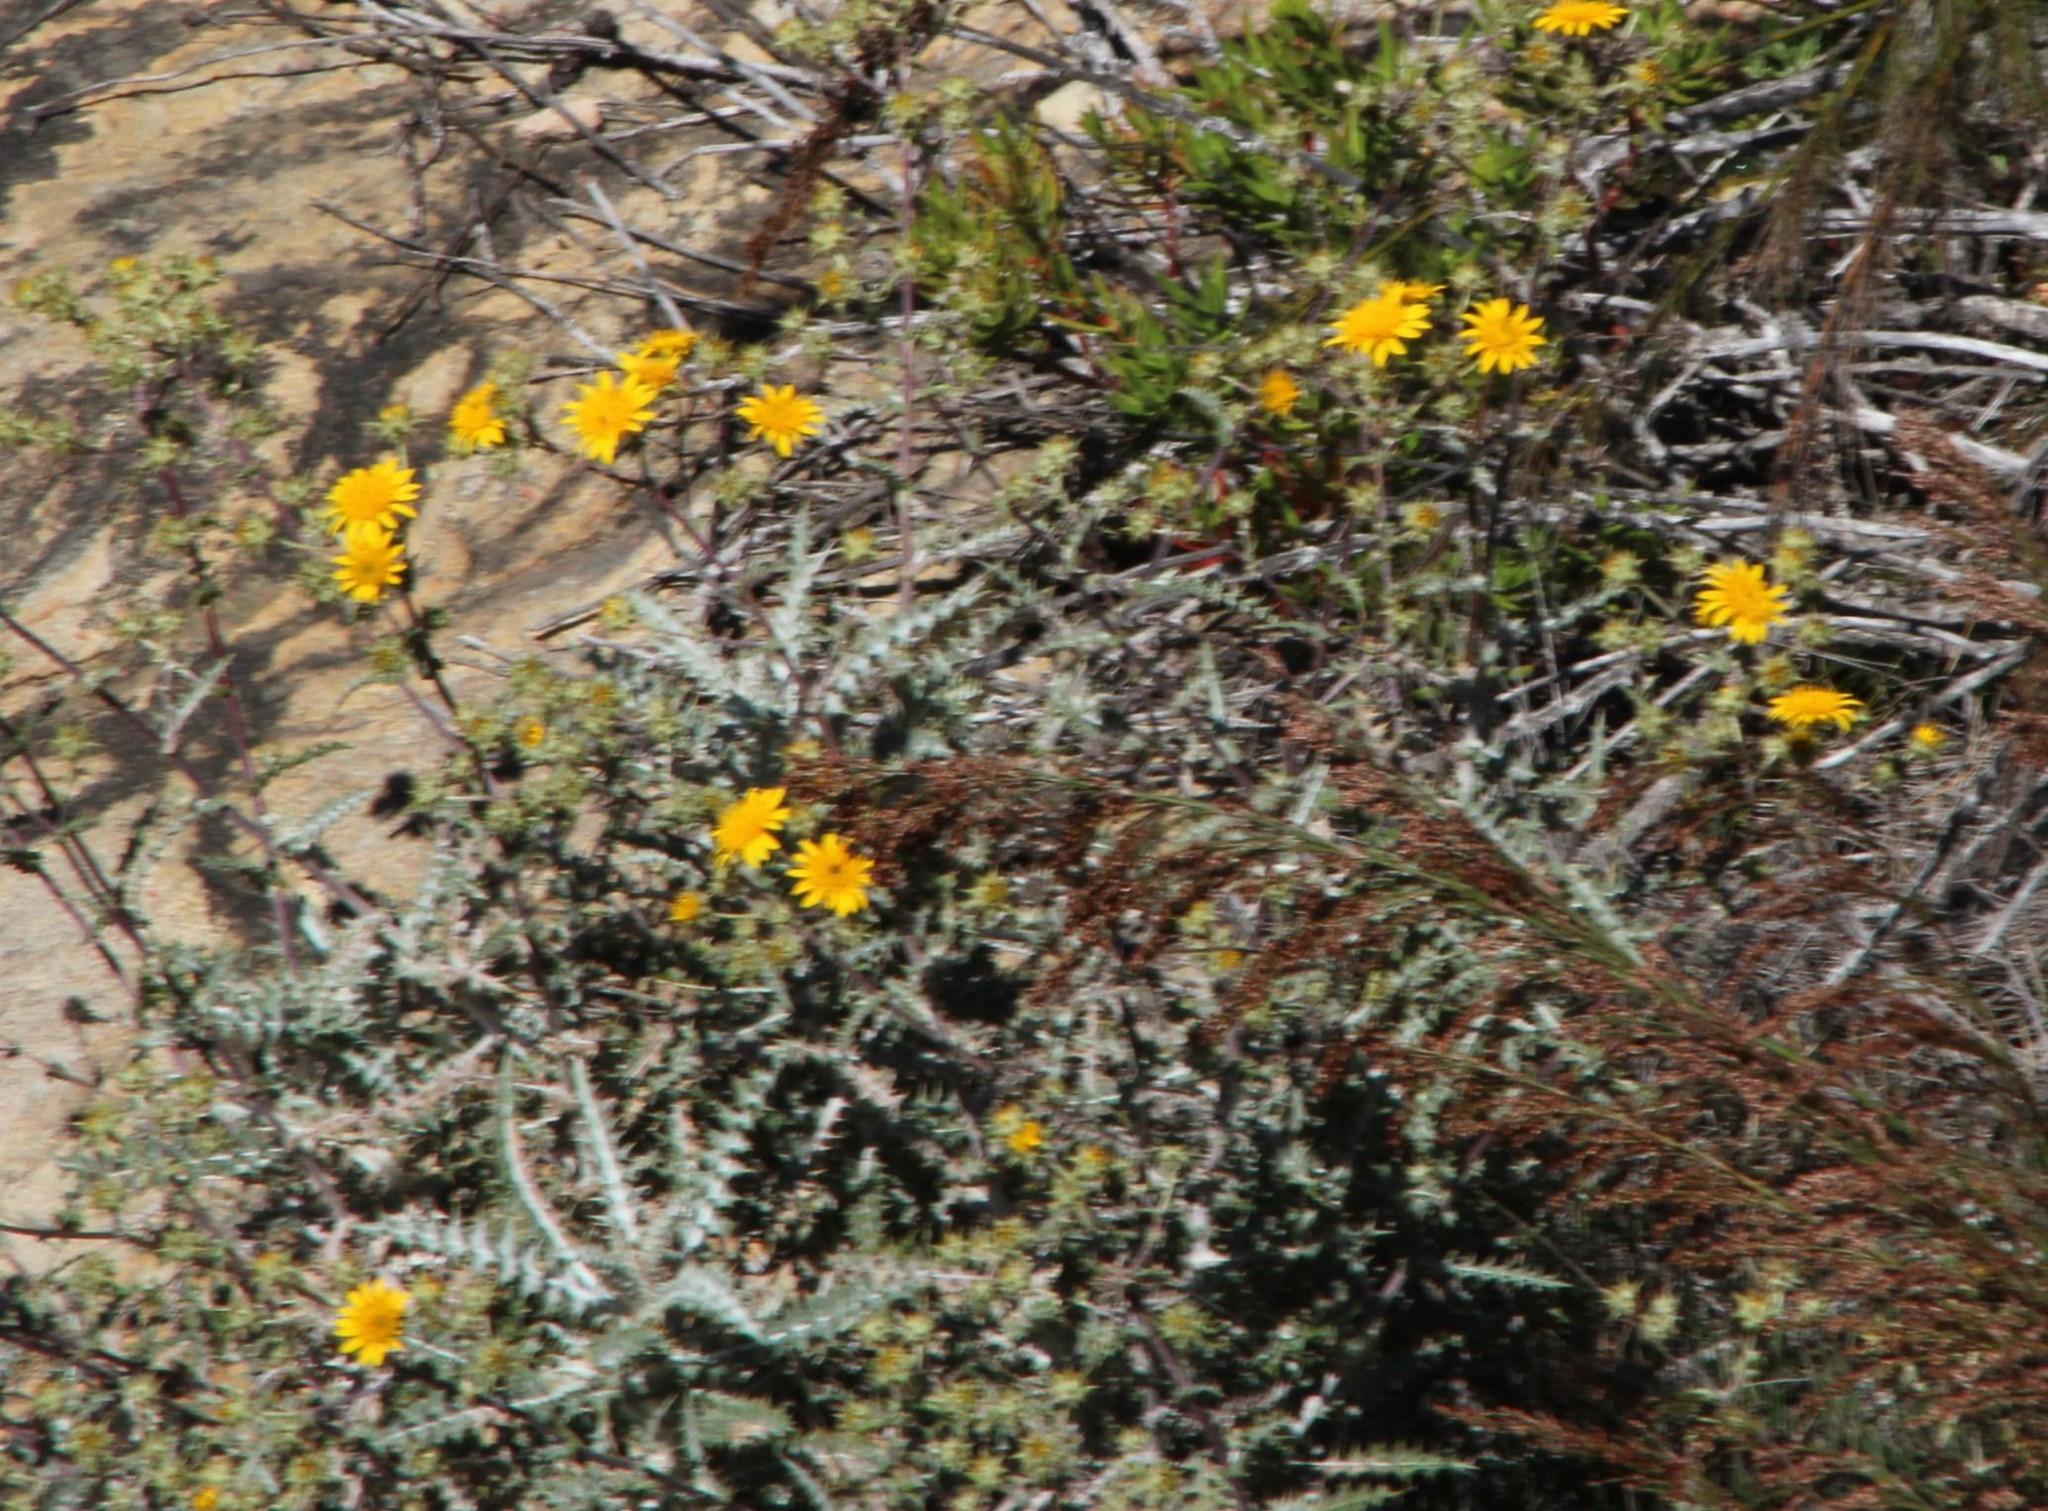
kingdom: Plantae
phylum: Tracheophyta
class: Magnoliopsida
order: Asterales
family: Asteraceae
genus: Berkheya
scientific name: Berkheya heterophylla
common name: Prickly gousblom
